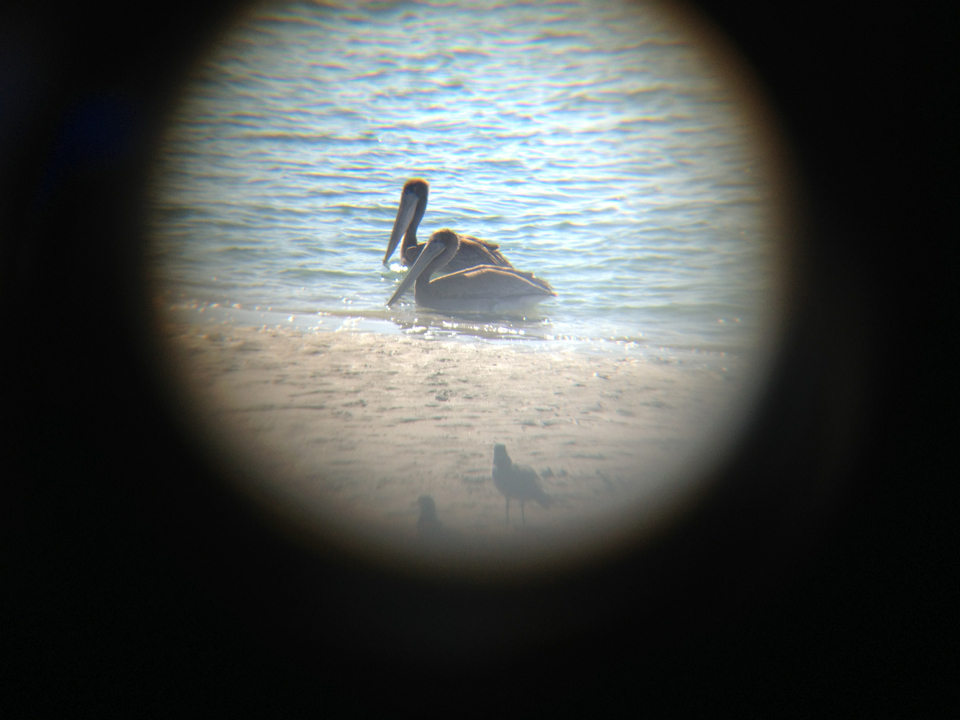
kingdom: Animalia
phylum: Chordata
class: Aves
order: Pelecaniformes
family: Pelecanidae
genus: Pelecanus
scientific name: Pelecanus occidentalis
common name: Brown pelican
